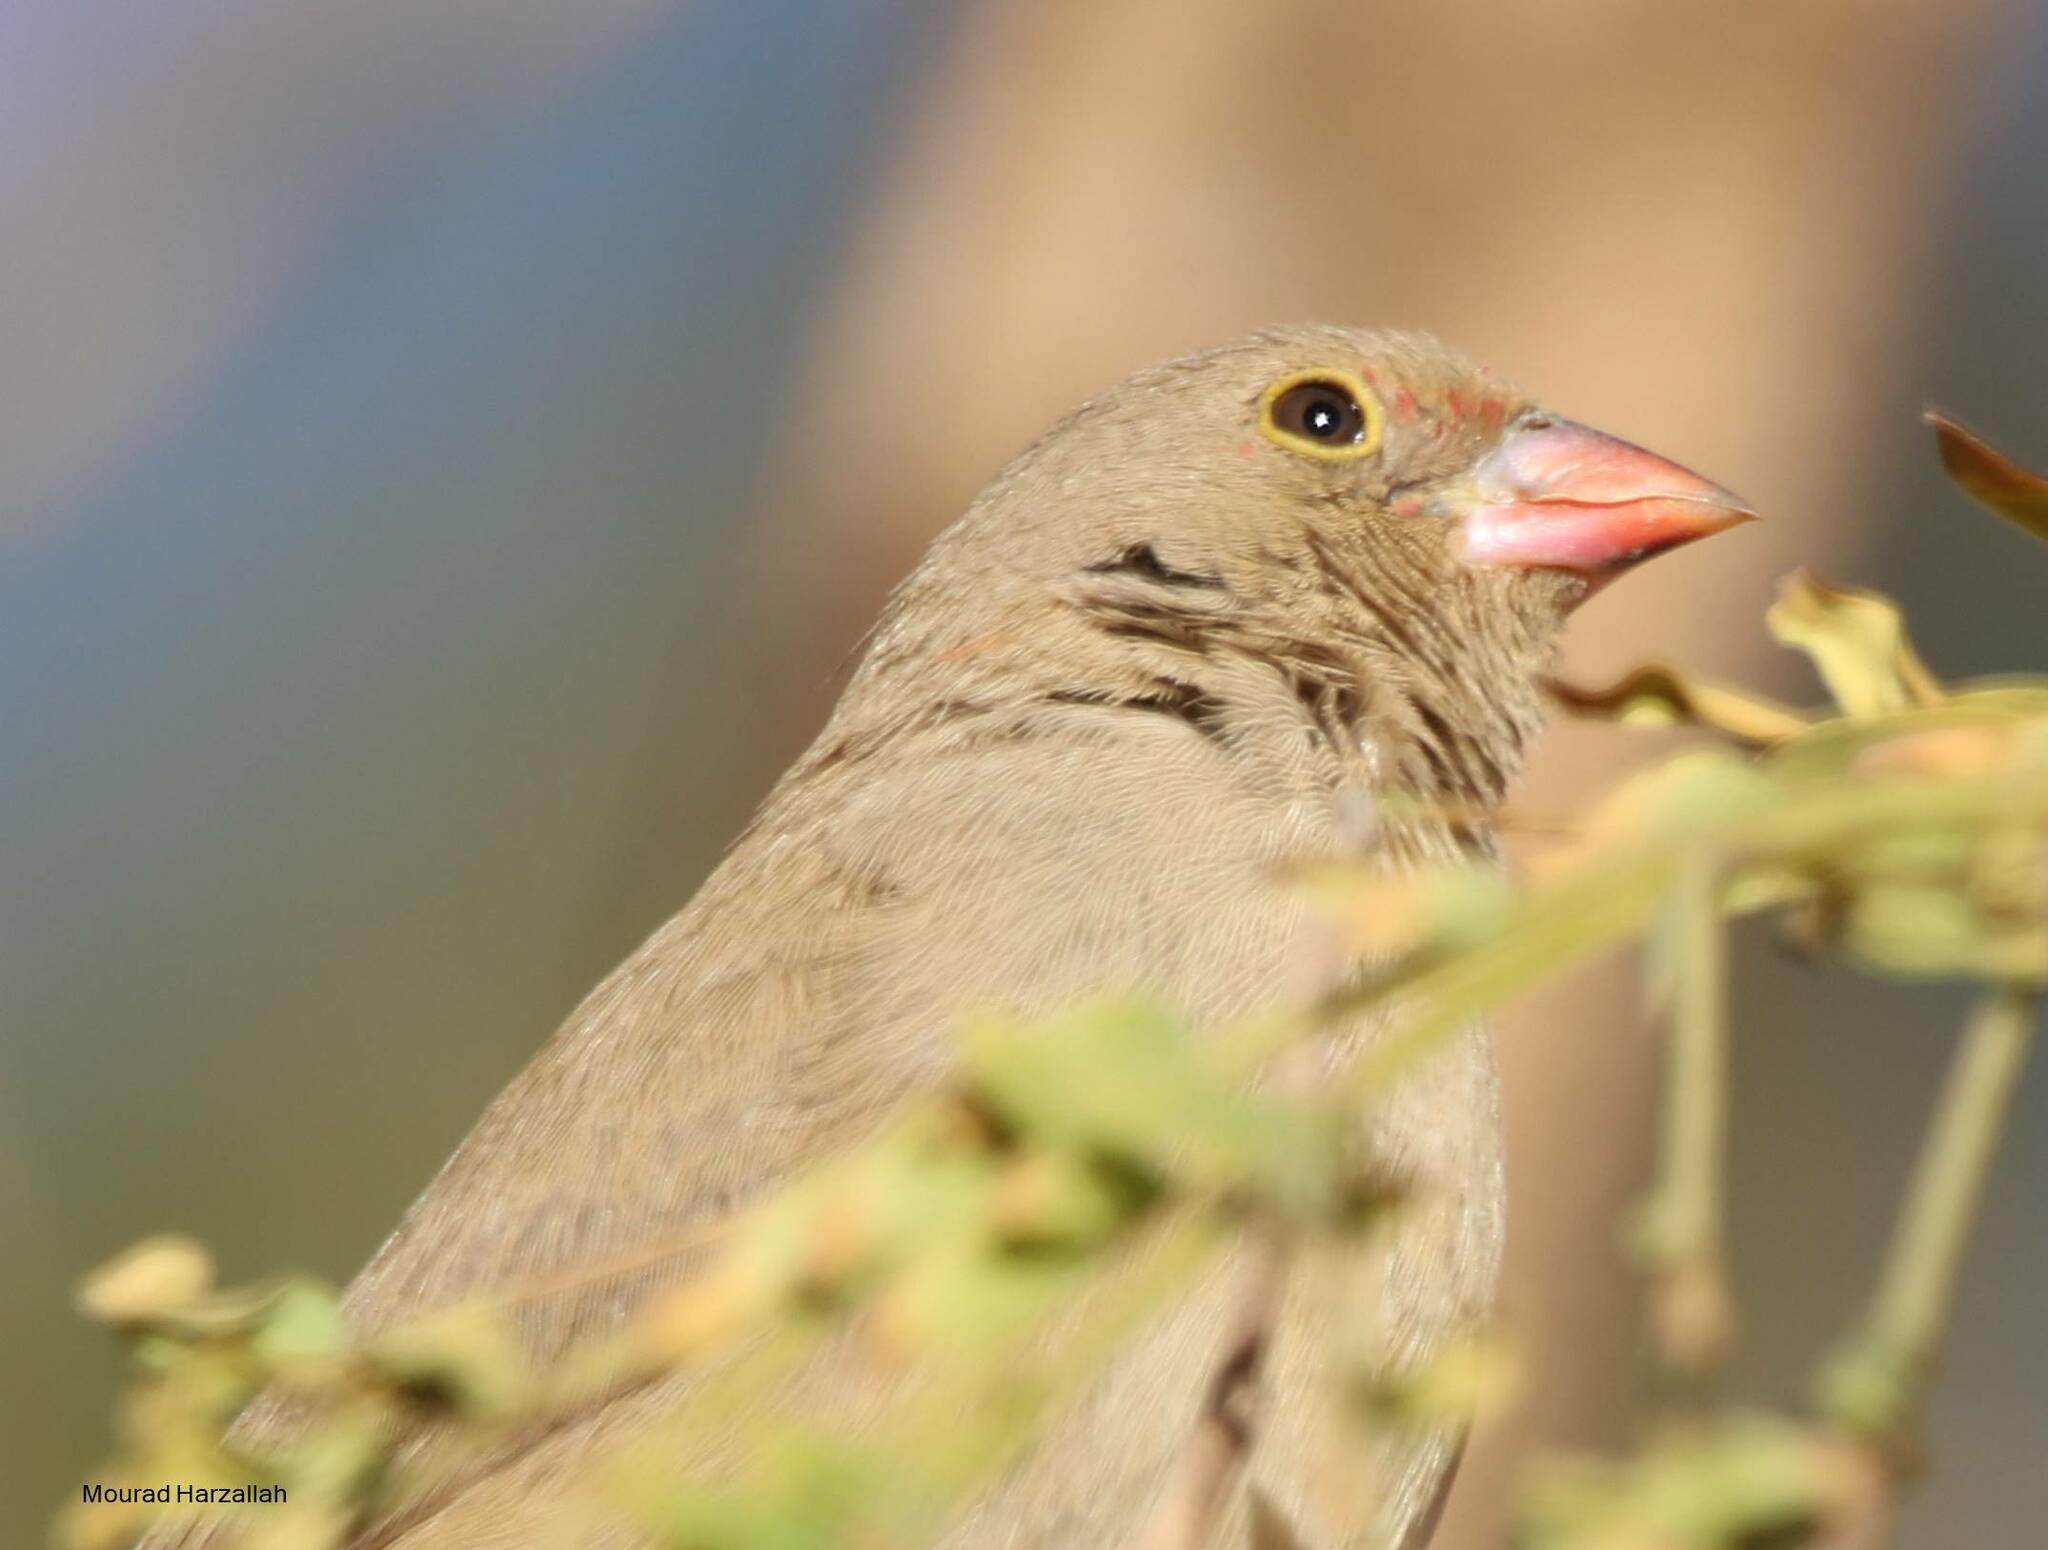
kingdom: Animalia
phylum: Chordata
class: Aves
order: Passeriformes
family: Estrildidae
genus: Lagonosticta
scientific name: Lagonosticta senegala
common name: Red-billed firefinch
